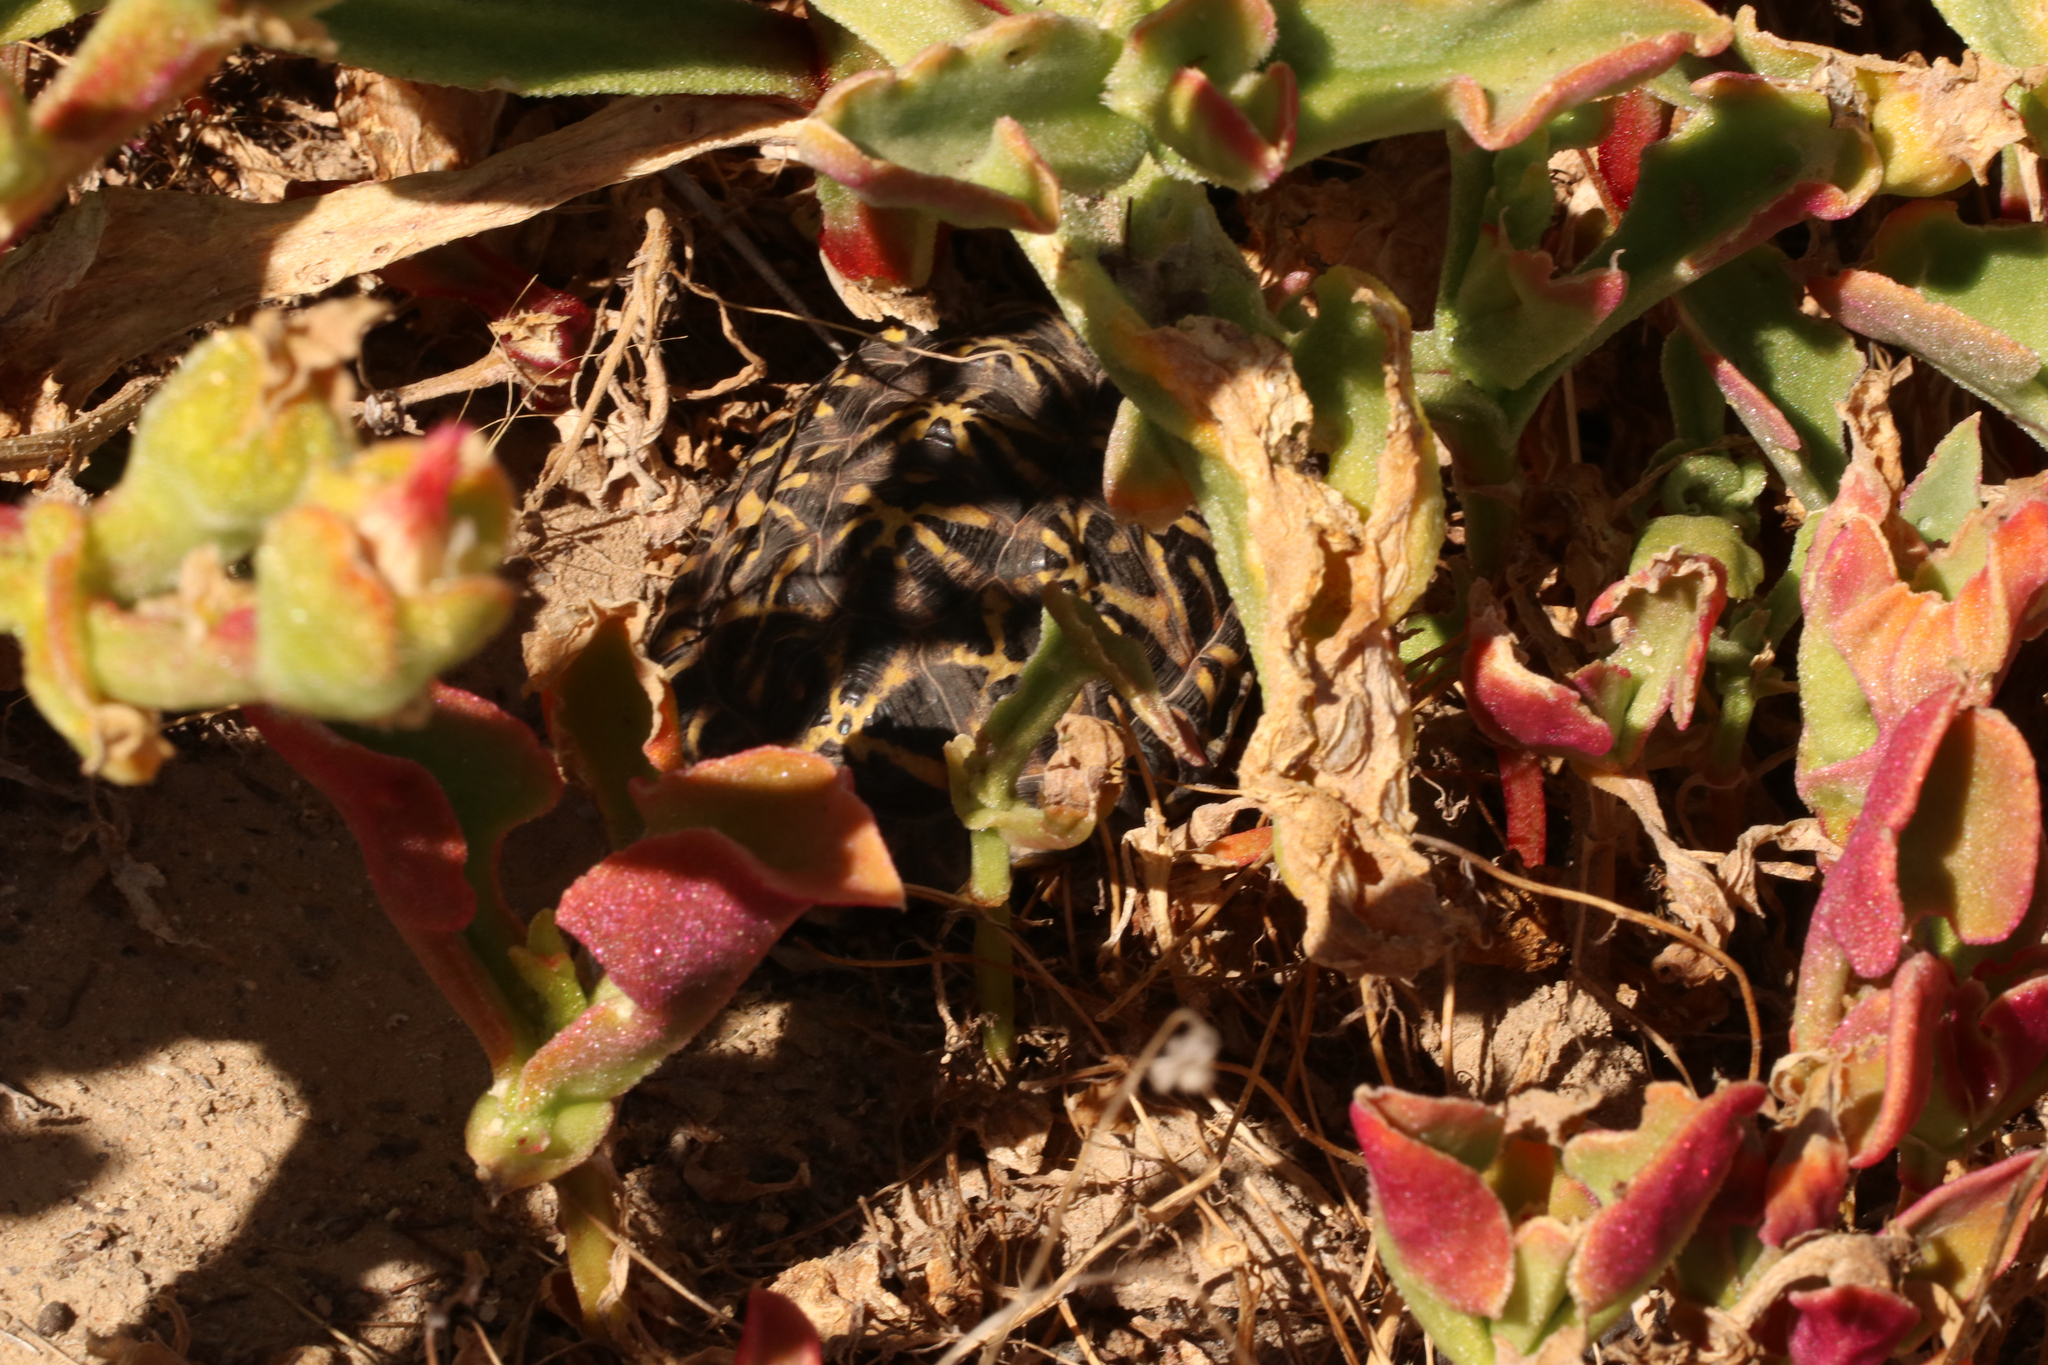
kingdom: Animalia
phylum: Chordata
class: Testudines
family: Testudinidae
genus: Psammobates
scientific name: Psammobates tentorius
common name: Tent tortoise
